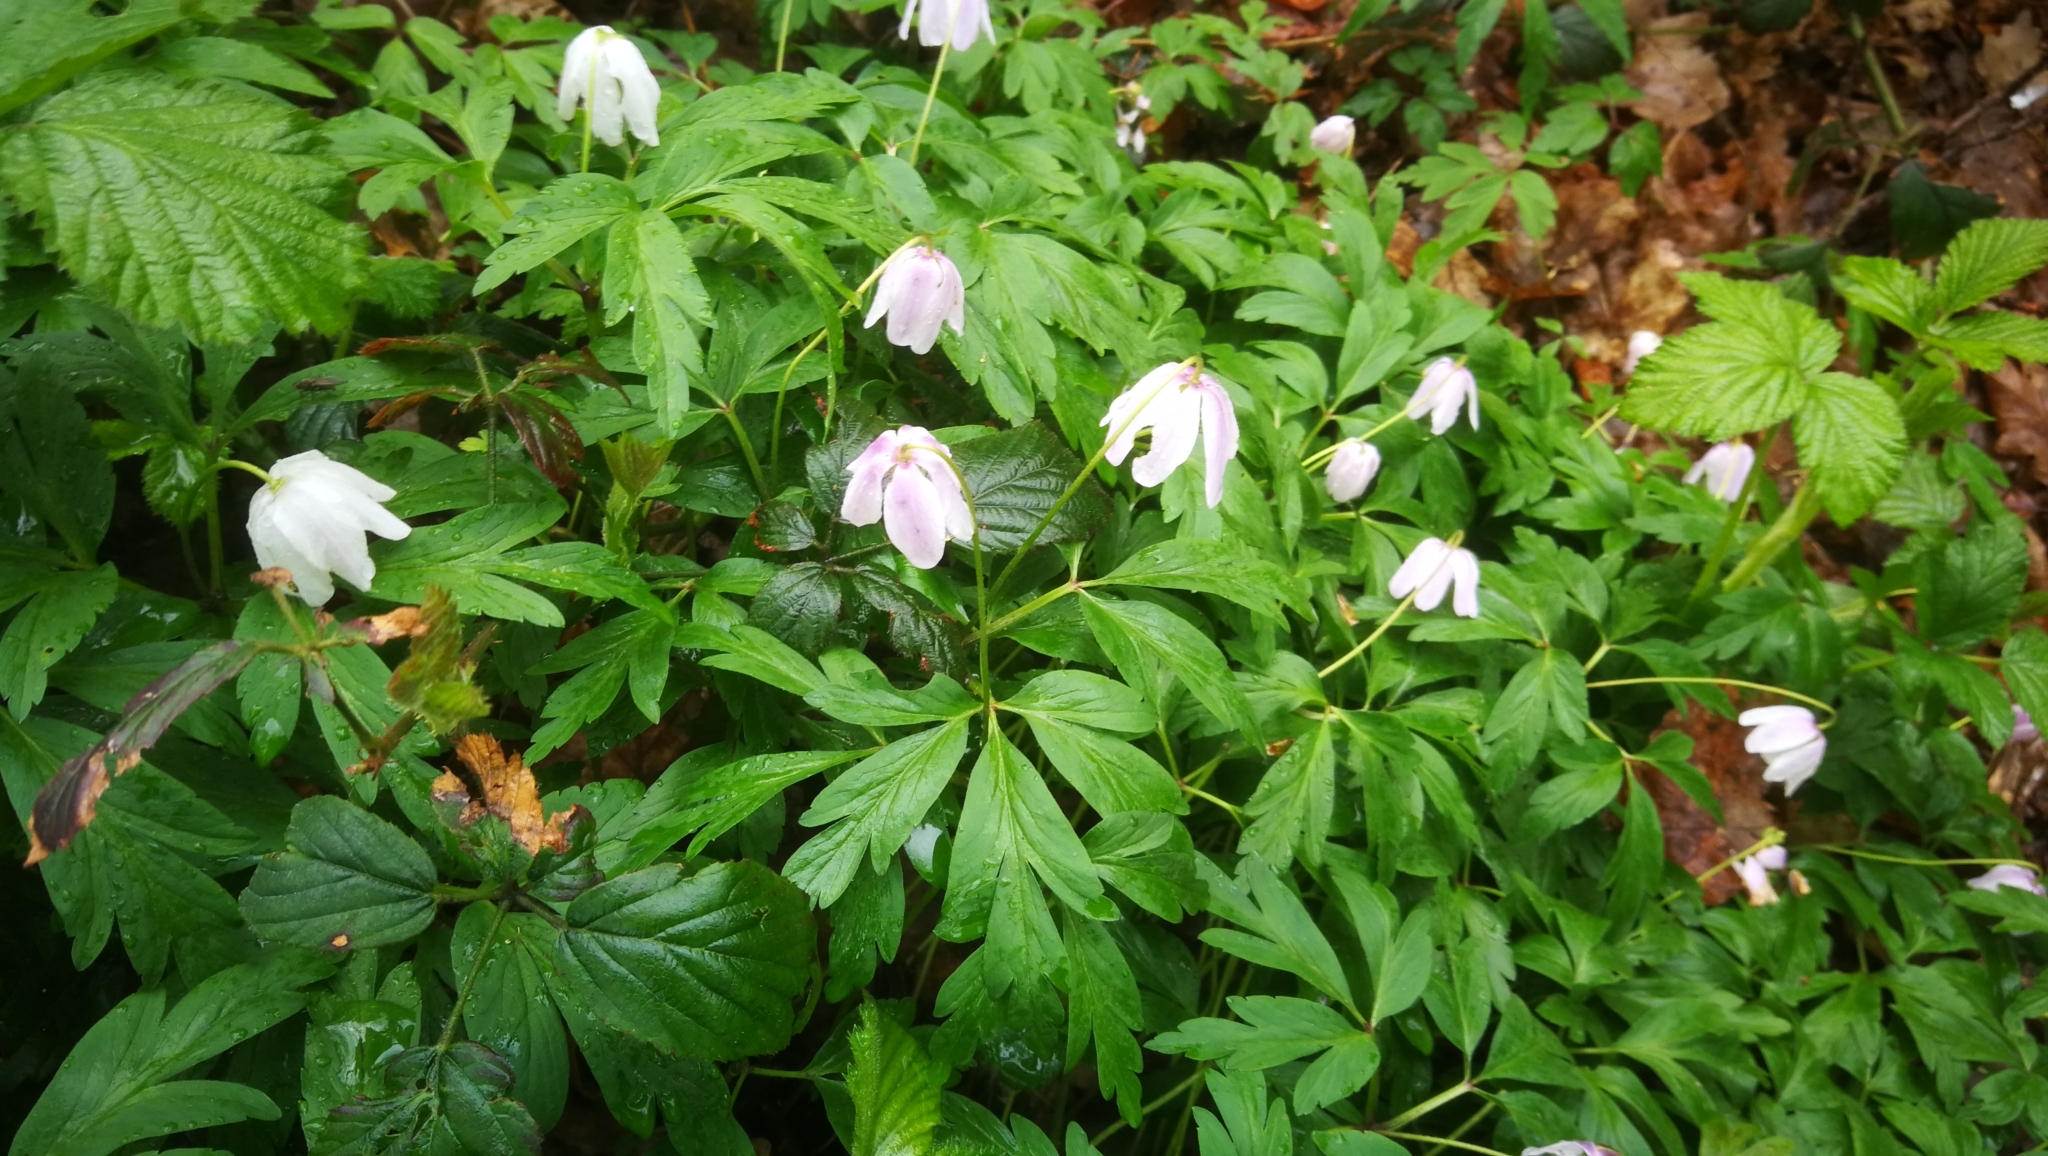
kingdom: Plantae
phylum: Tracheophyta
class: Magnoliopsida
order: Ranunculales
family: Ranunculaceae
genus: Anemone
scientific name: Anemone nemorosa
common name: Wood anemone
